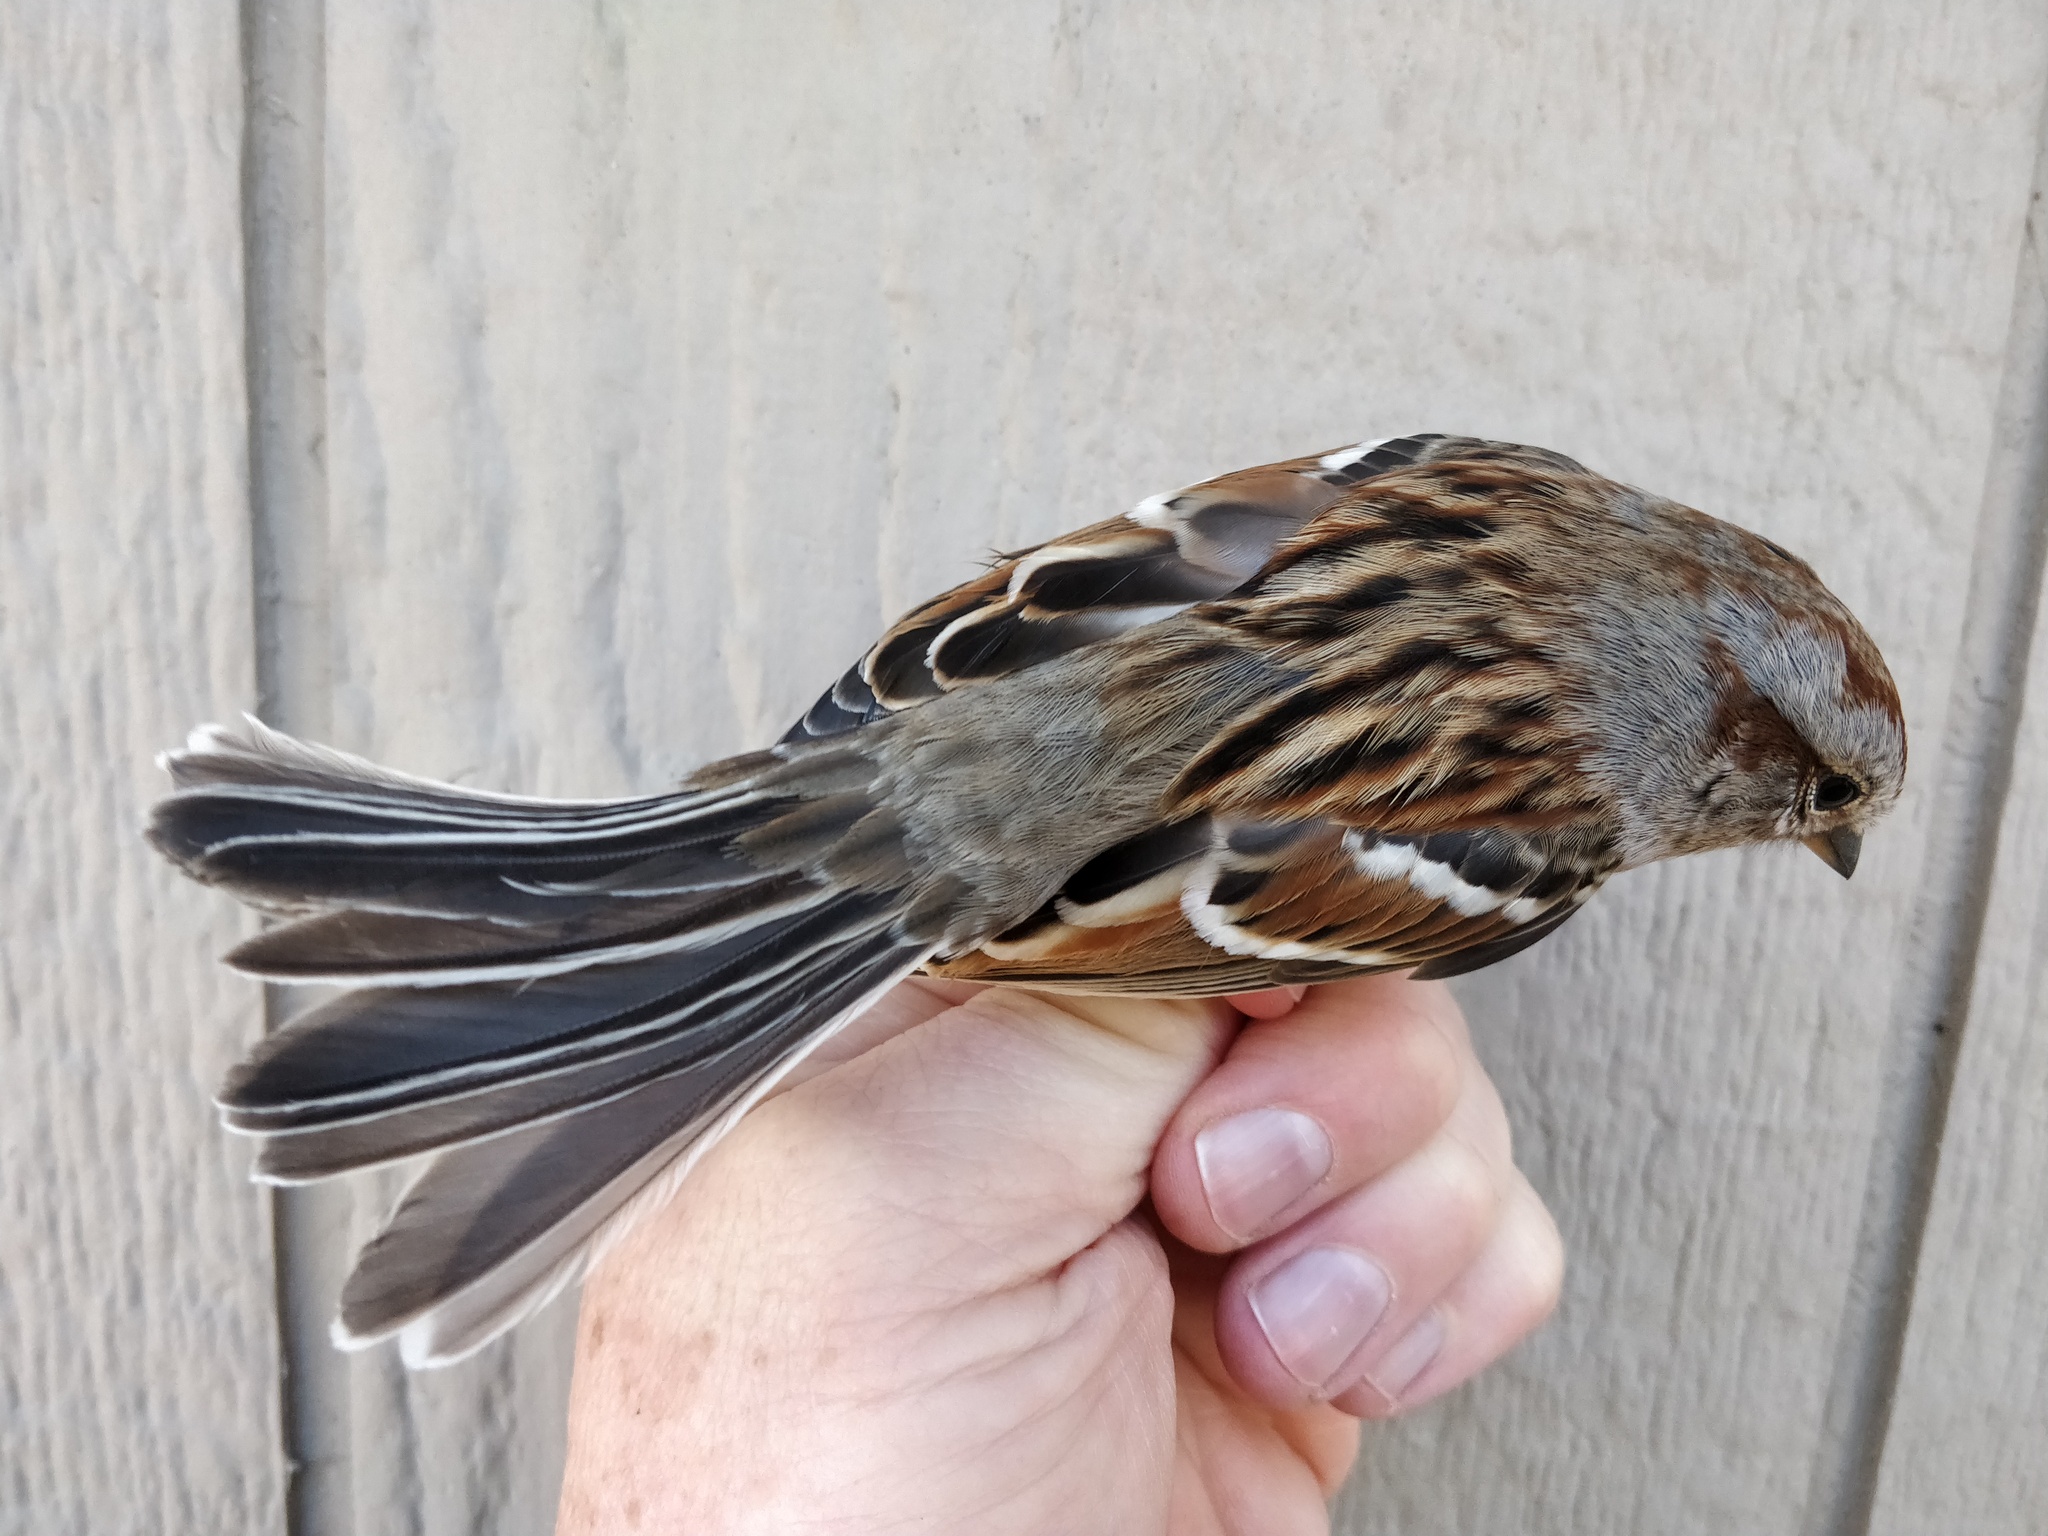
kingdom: Animalia
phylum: Chordata
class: Aves
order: Passeriformes
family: Passerellidae
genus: Spizelloides
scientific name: Spizelloides arborea
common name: American tree sparrow
